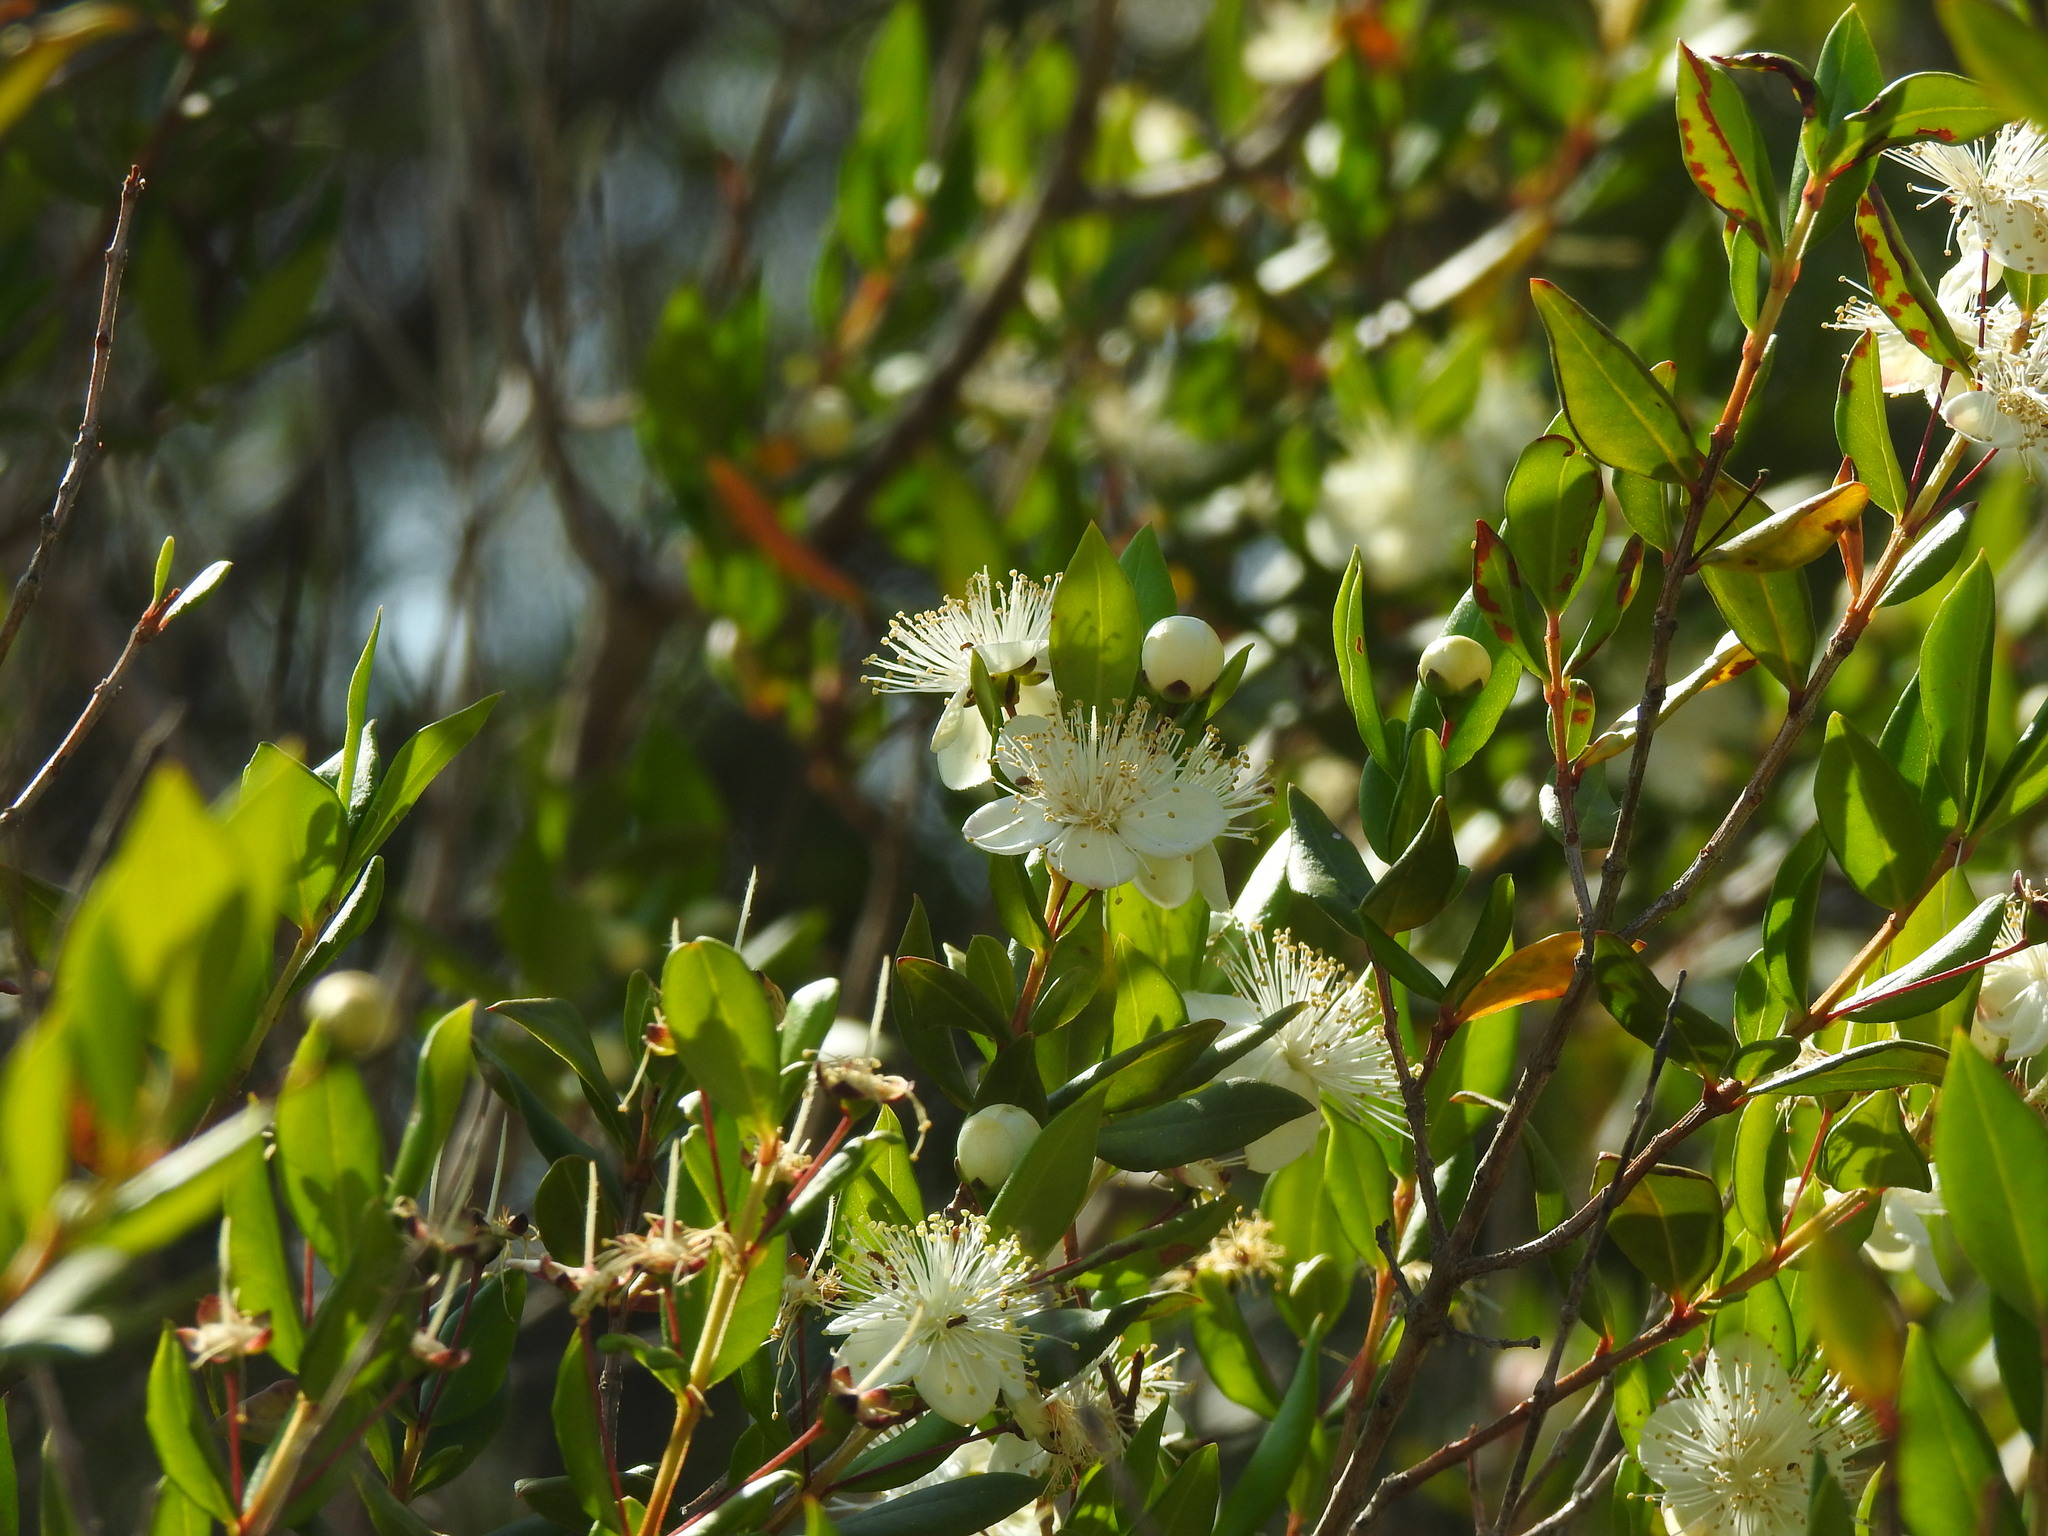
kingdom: Plantae
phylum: Tracheophyta
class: Magnoliopsida
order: Myrtales
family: Myrtaceae
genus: Myrtus
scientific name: Myrtus communis
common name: Myrtle
